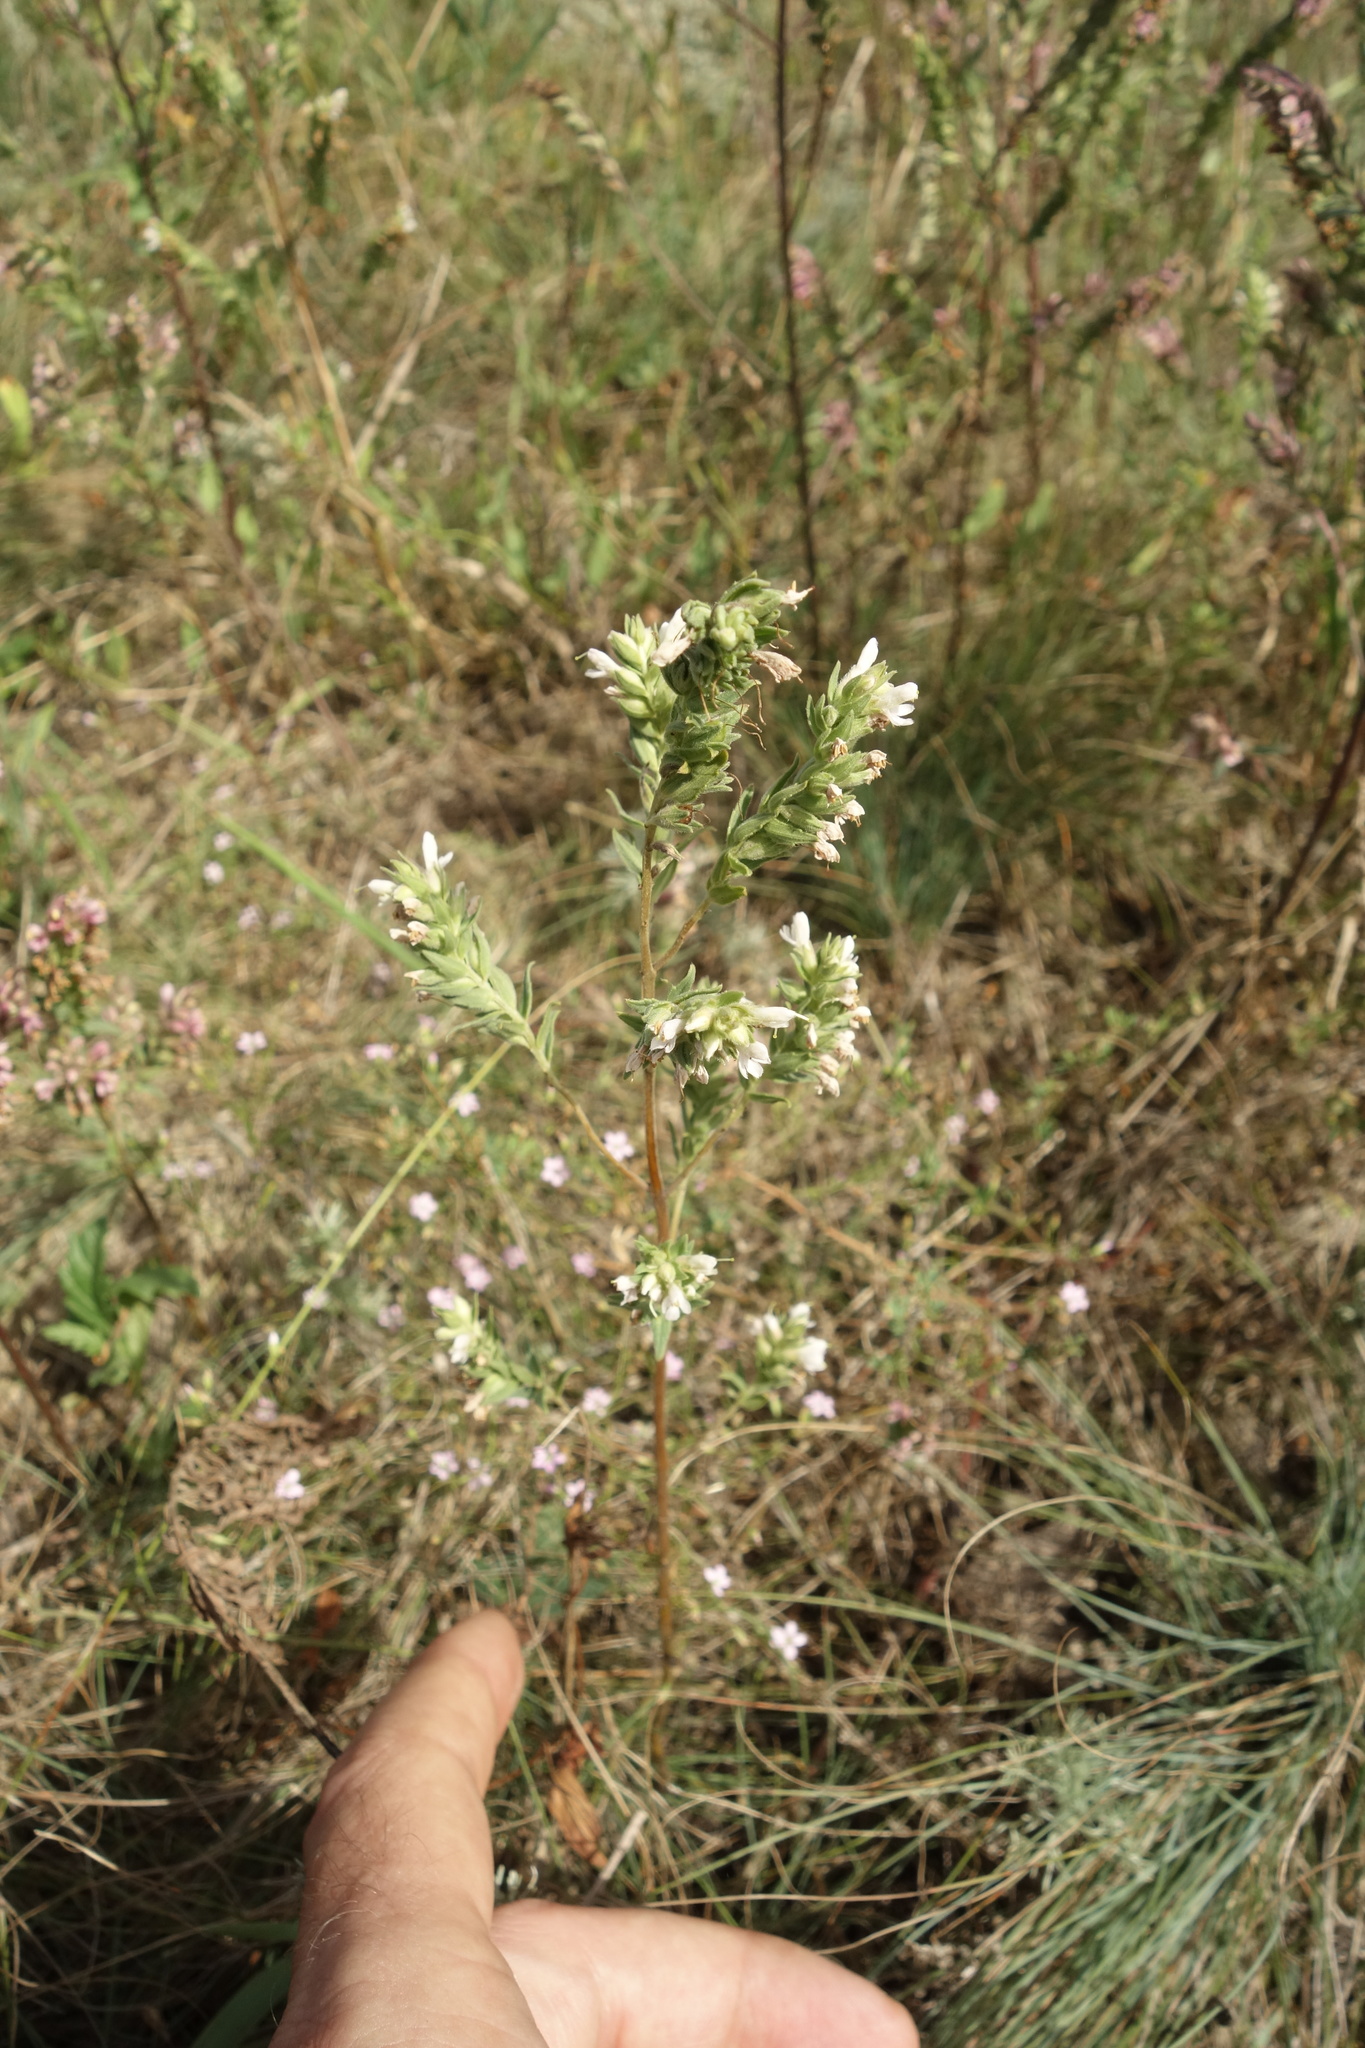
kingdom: Plantae
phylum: Tracheophyta
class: Magnoliopsida
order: Lamiales
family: Orobanchaceae
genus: Odontites
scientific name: Odontites vulgaris
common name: Broomrape
